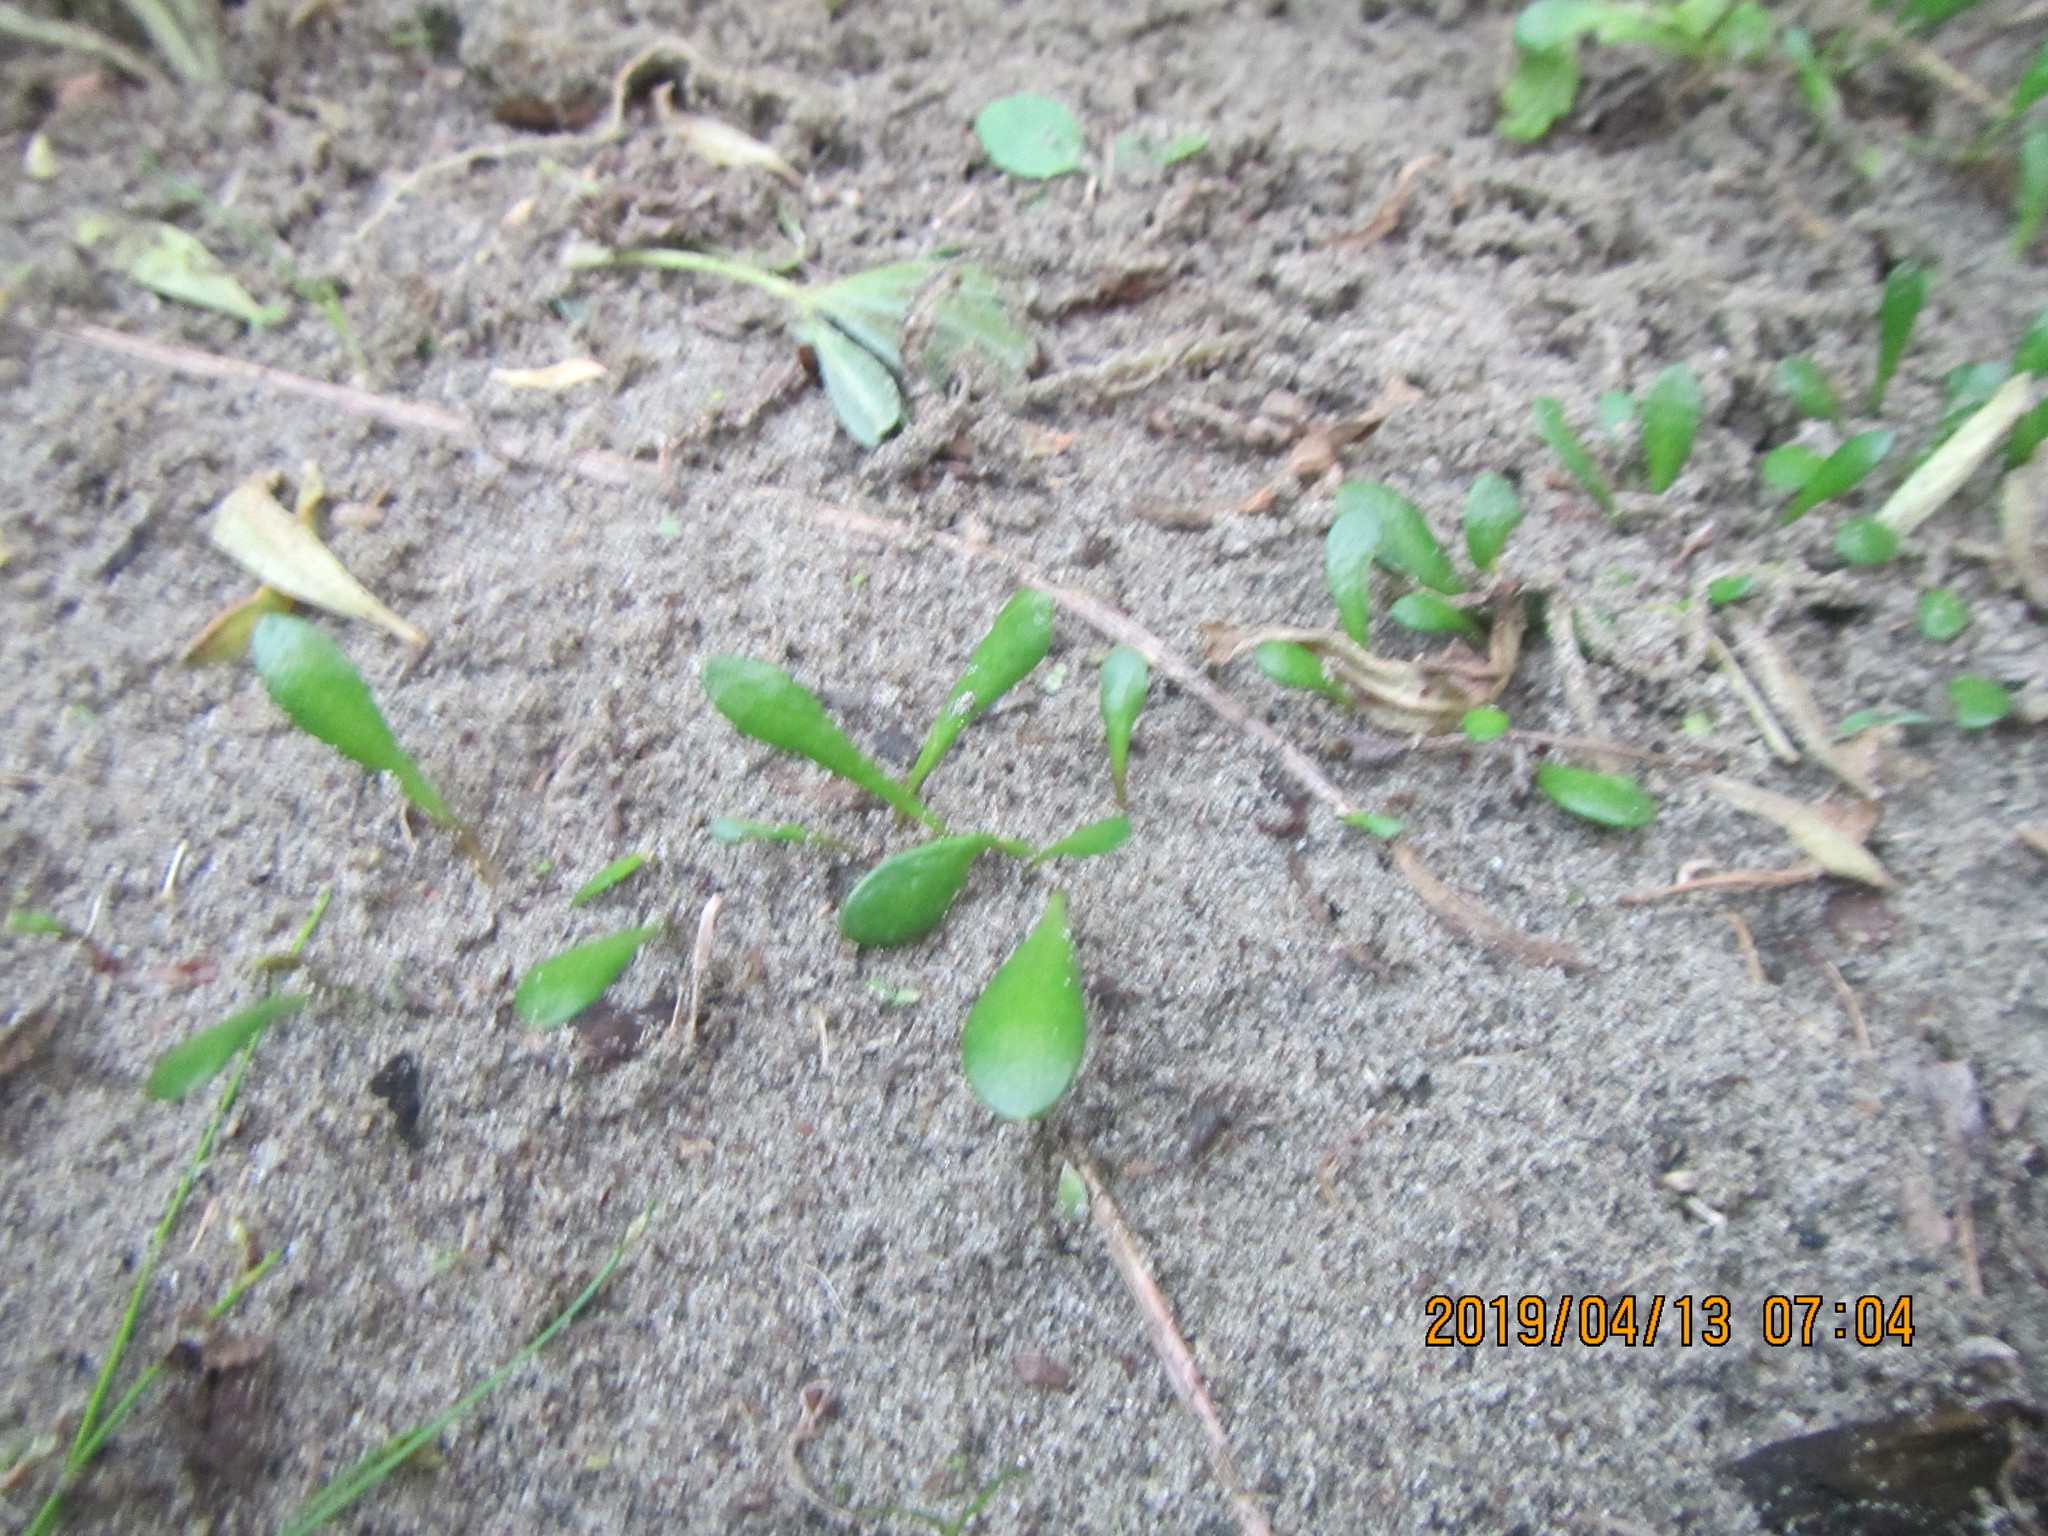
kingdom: Plantae
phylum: Tracheophyta
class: Magnoliopsida
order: Asterales
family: Goodeniaceae
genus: Goodenia
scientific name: Goodenia radicans
